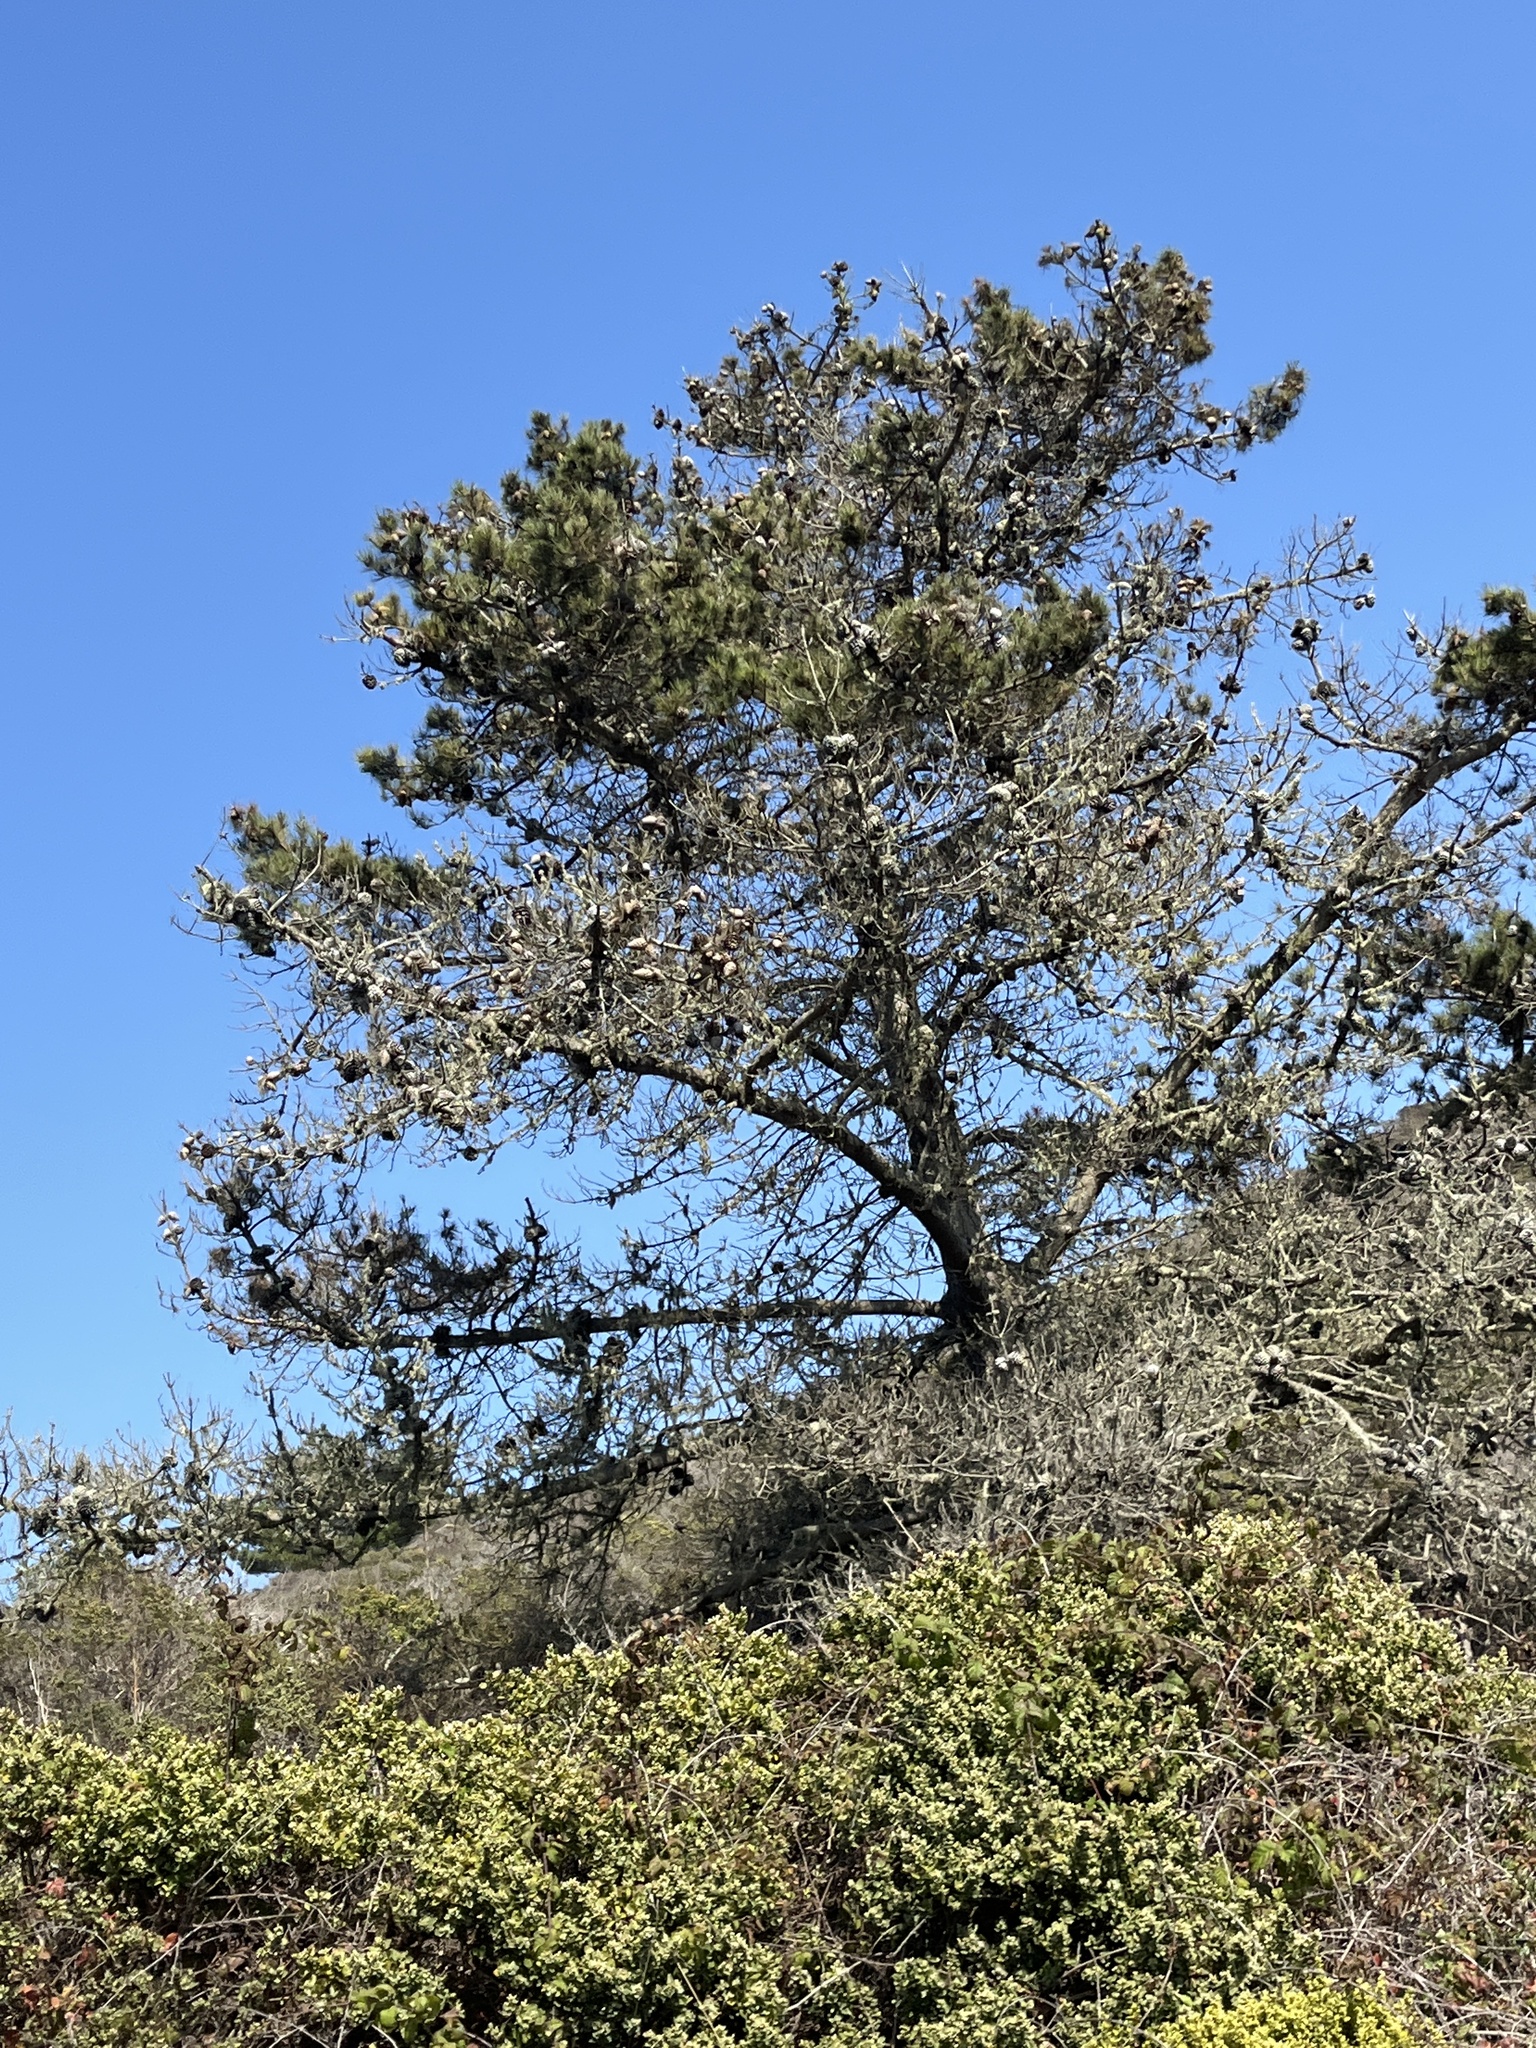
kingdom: Plantae
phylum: Tracheophyta
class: Pinopsida
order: Pinales
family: Pinaceae
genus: Pinus
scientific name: Pinus muricata
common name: Bishop pine
